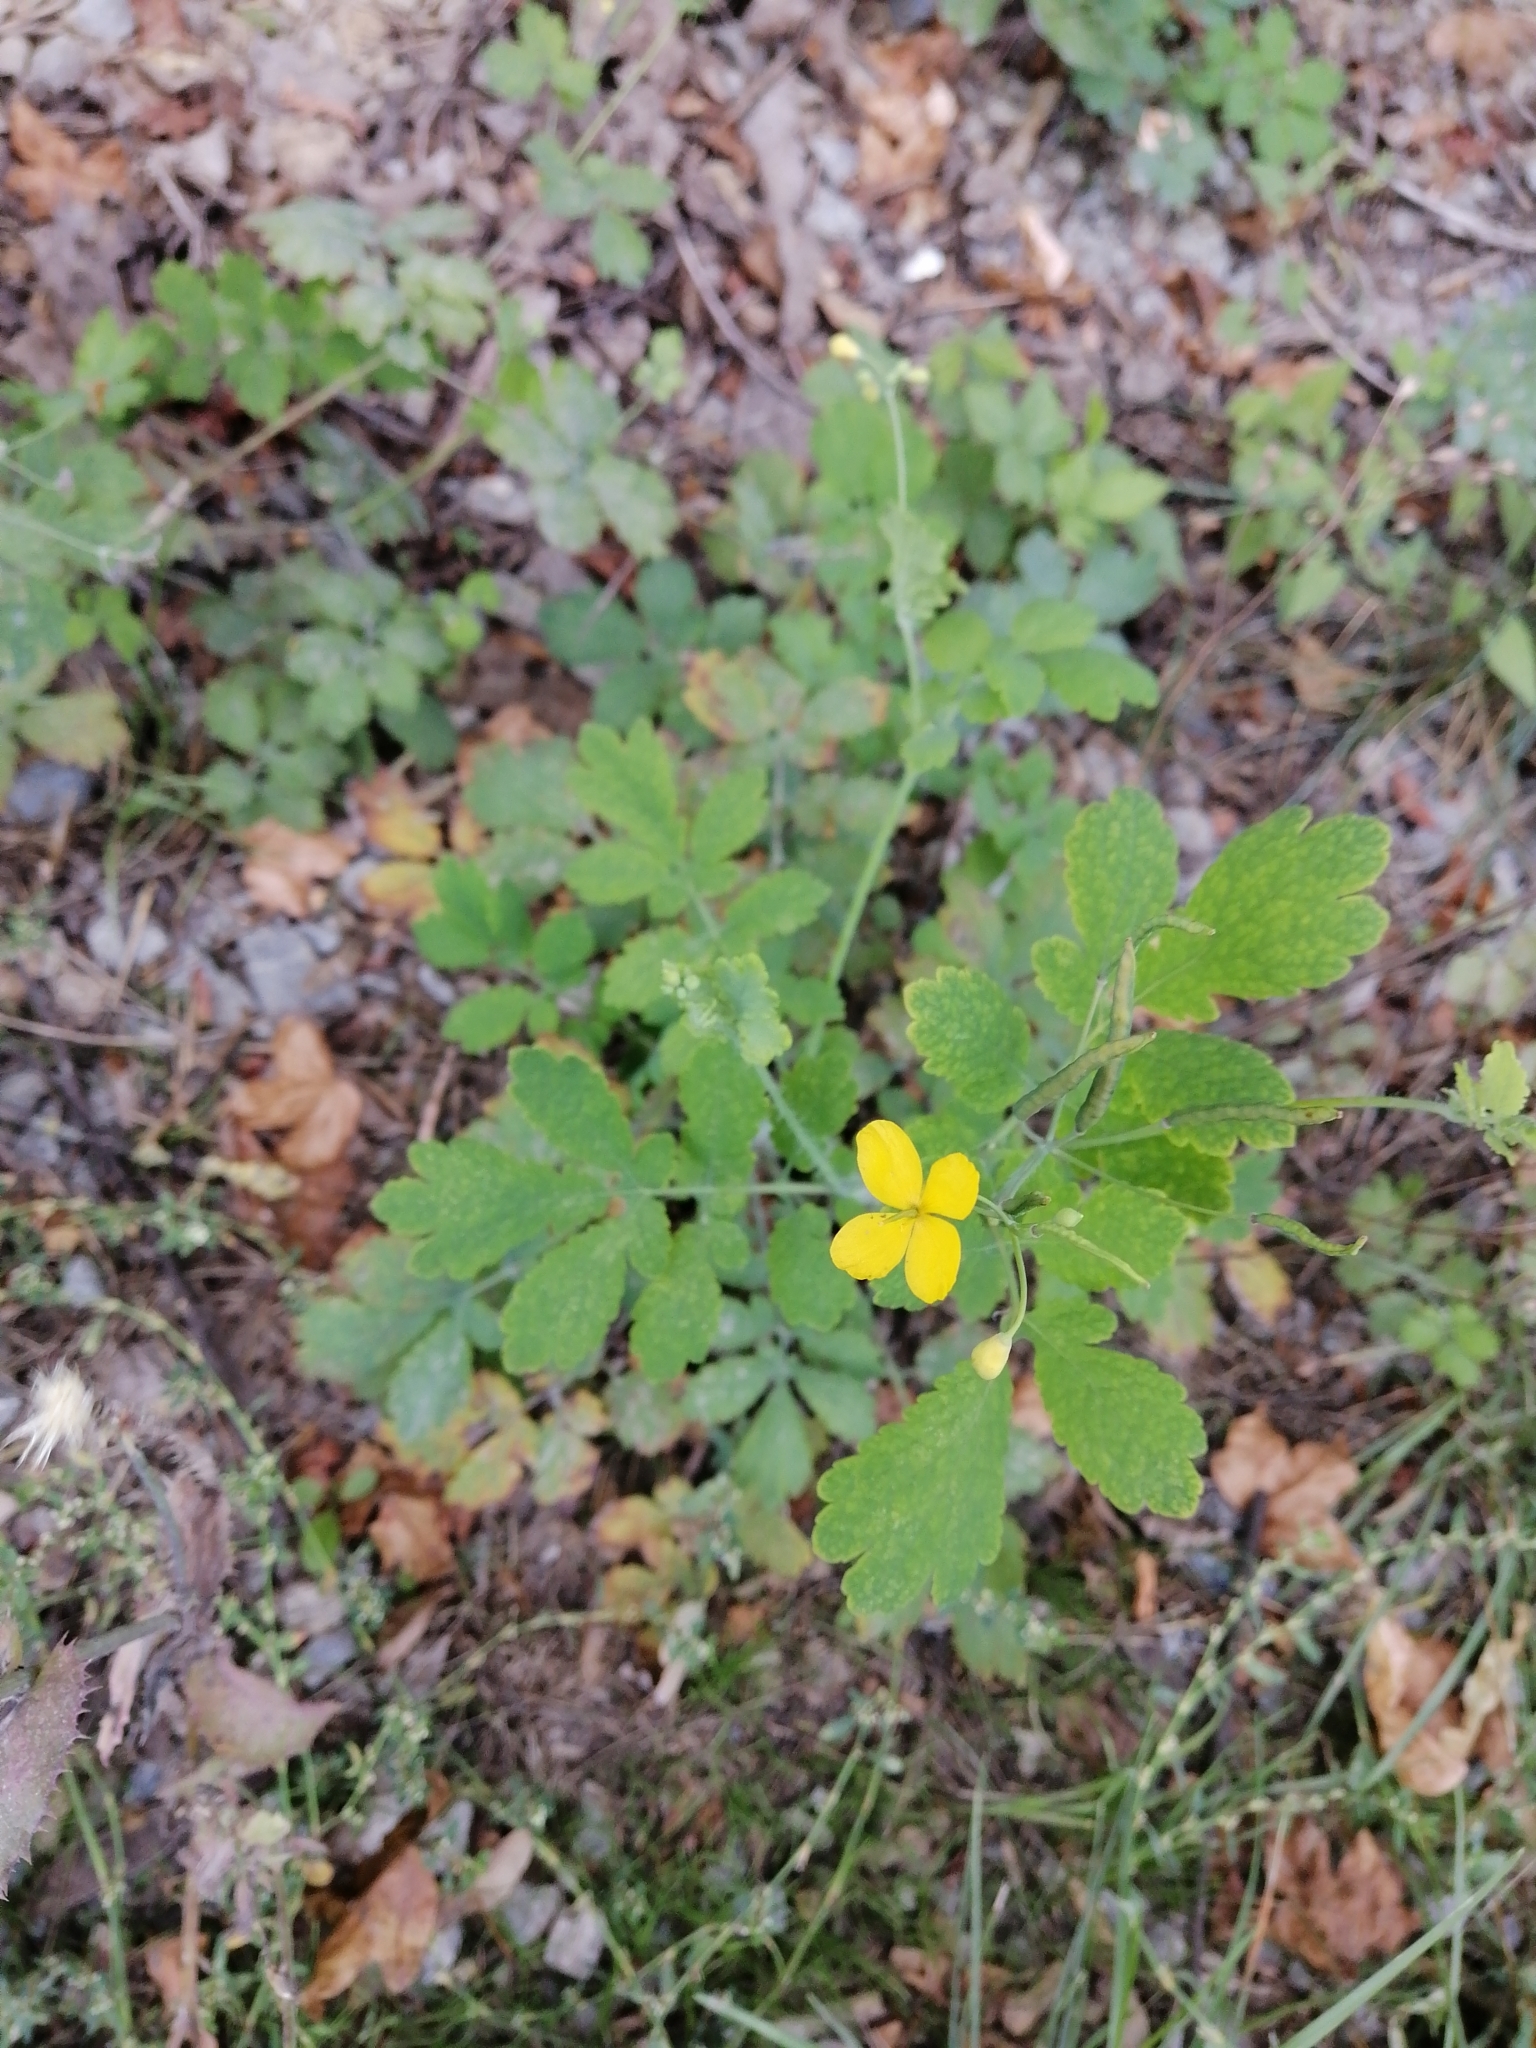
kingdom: Plantae
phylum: Tracheophyta
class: Magnoliopsida
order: Ranunculales
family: Papaveraceae
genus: Chelidonium
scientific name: Chelidonium majus
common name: Greater celandine
